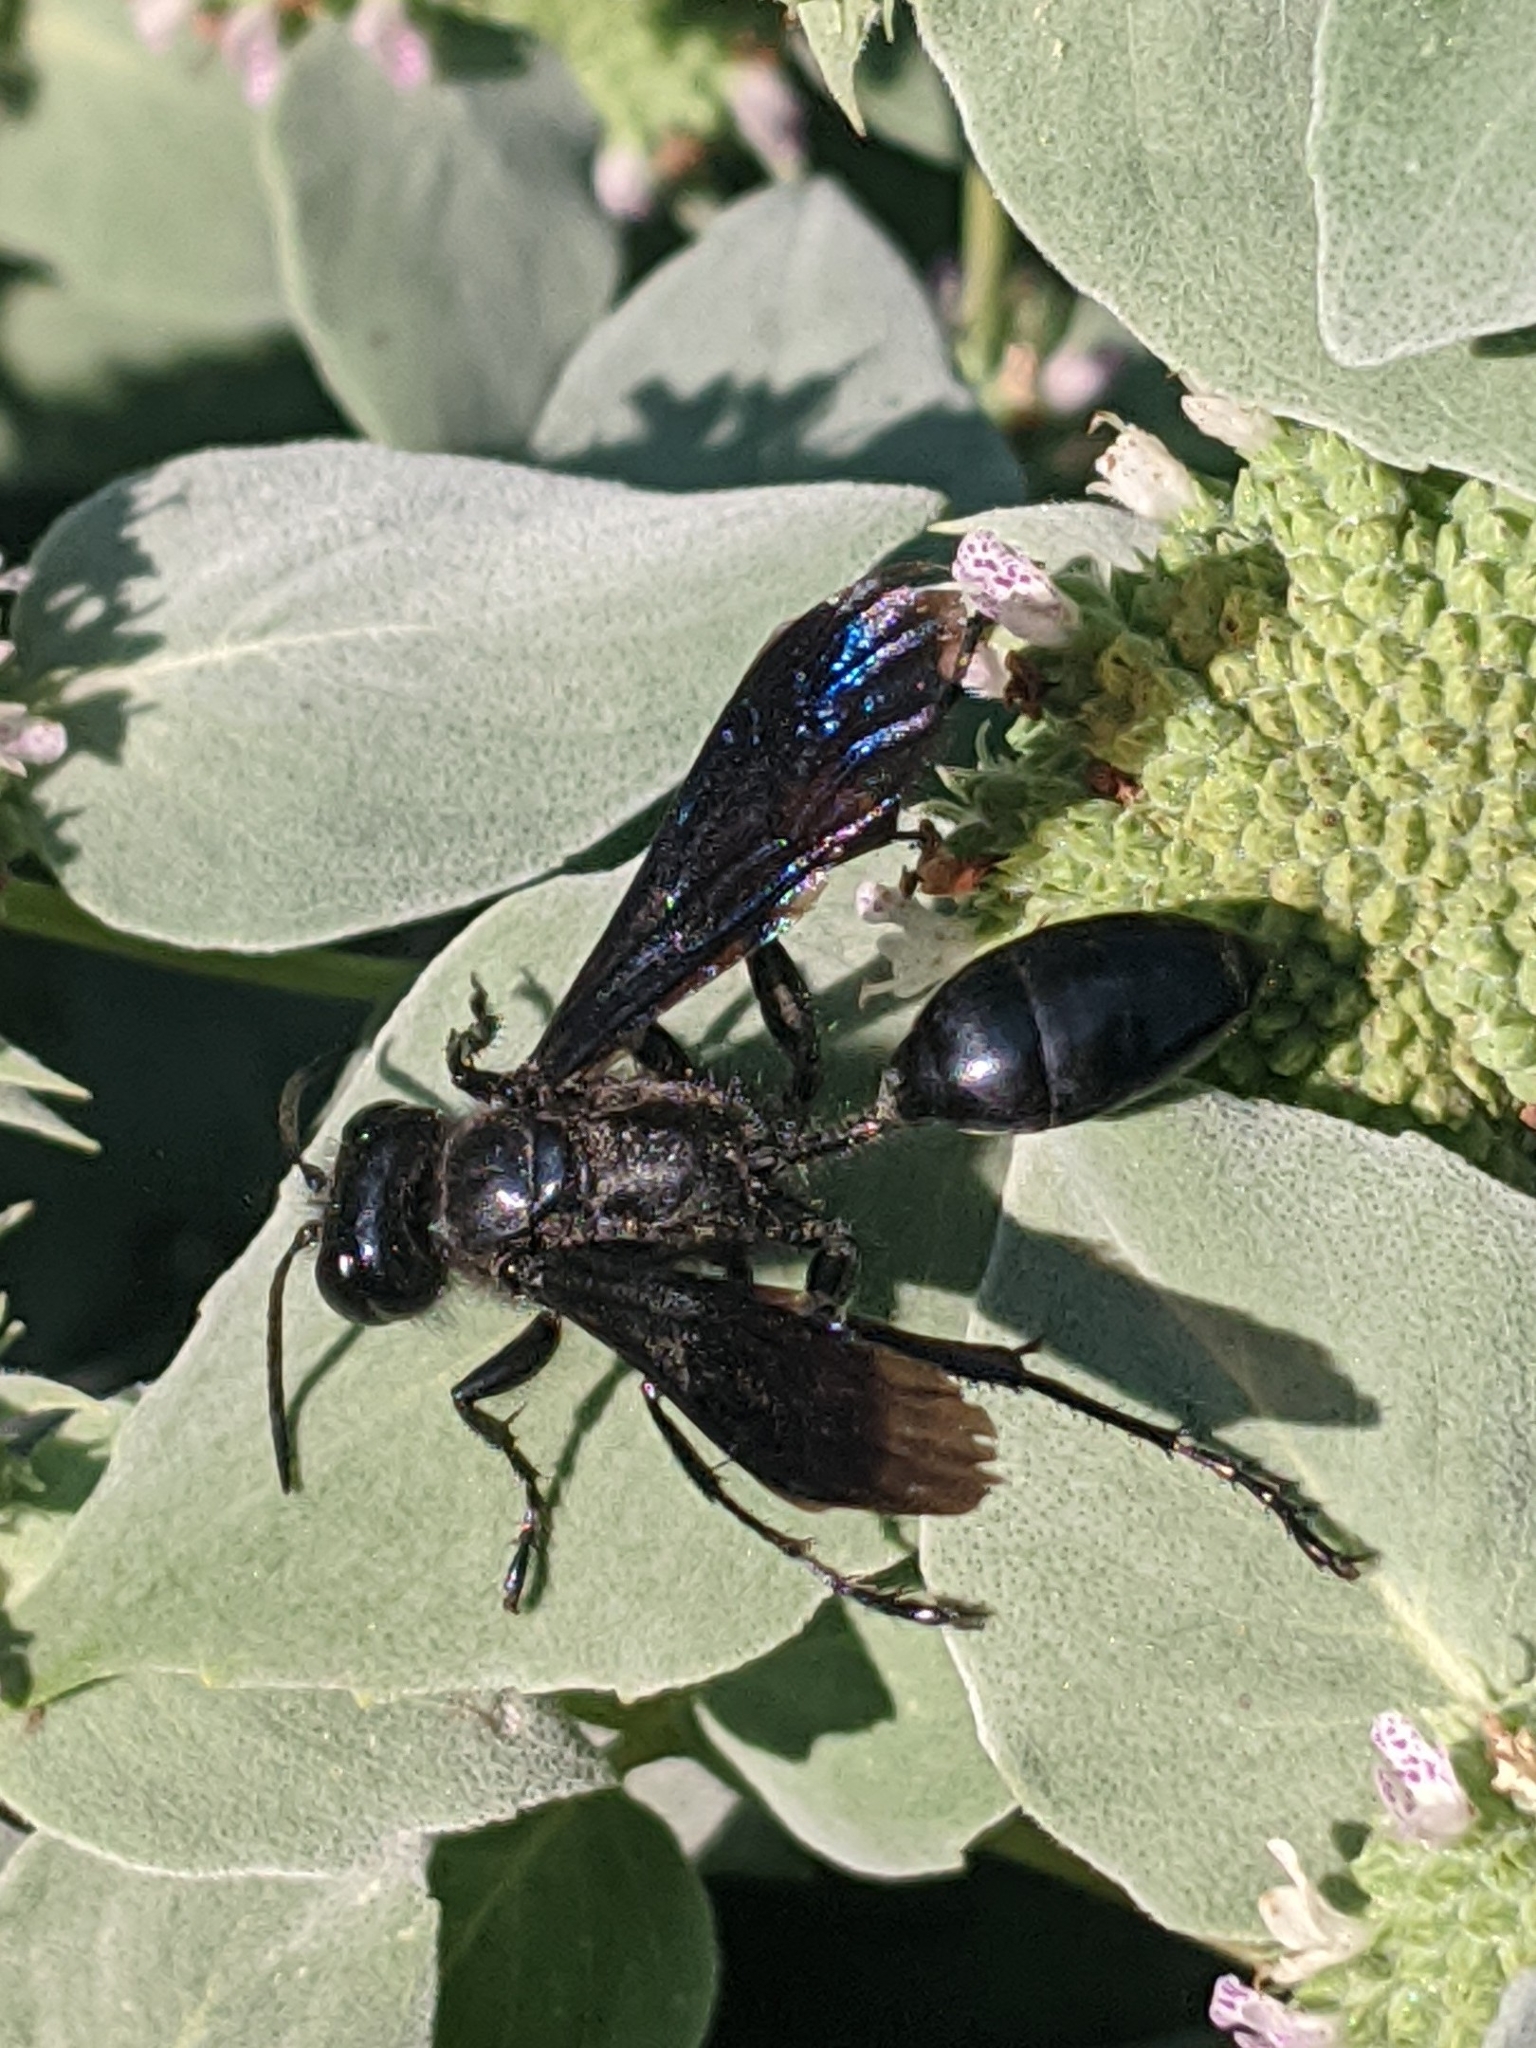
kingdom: Animalia
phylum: Arthropoda
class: Insecta
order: Hymenoptera
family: Sphecidae
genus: Isodontia
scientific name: Isodontia philadelphica
